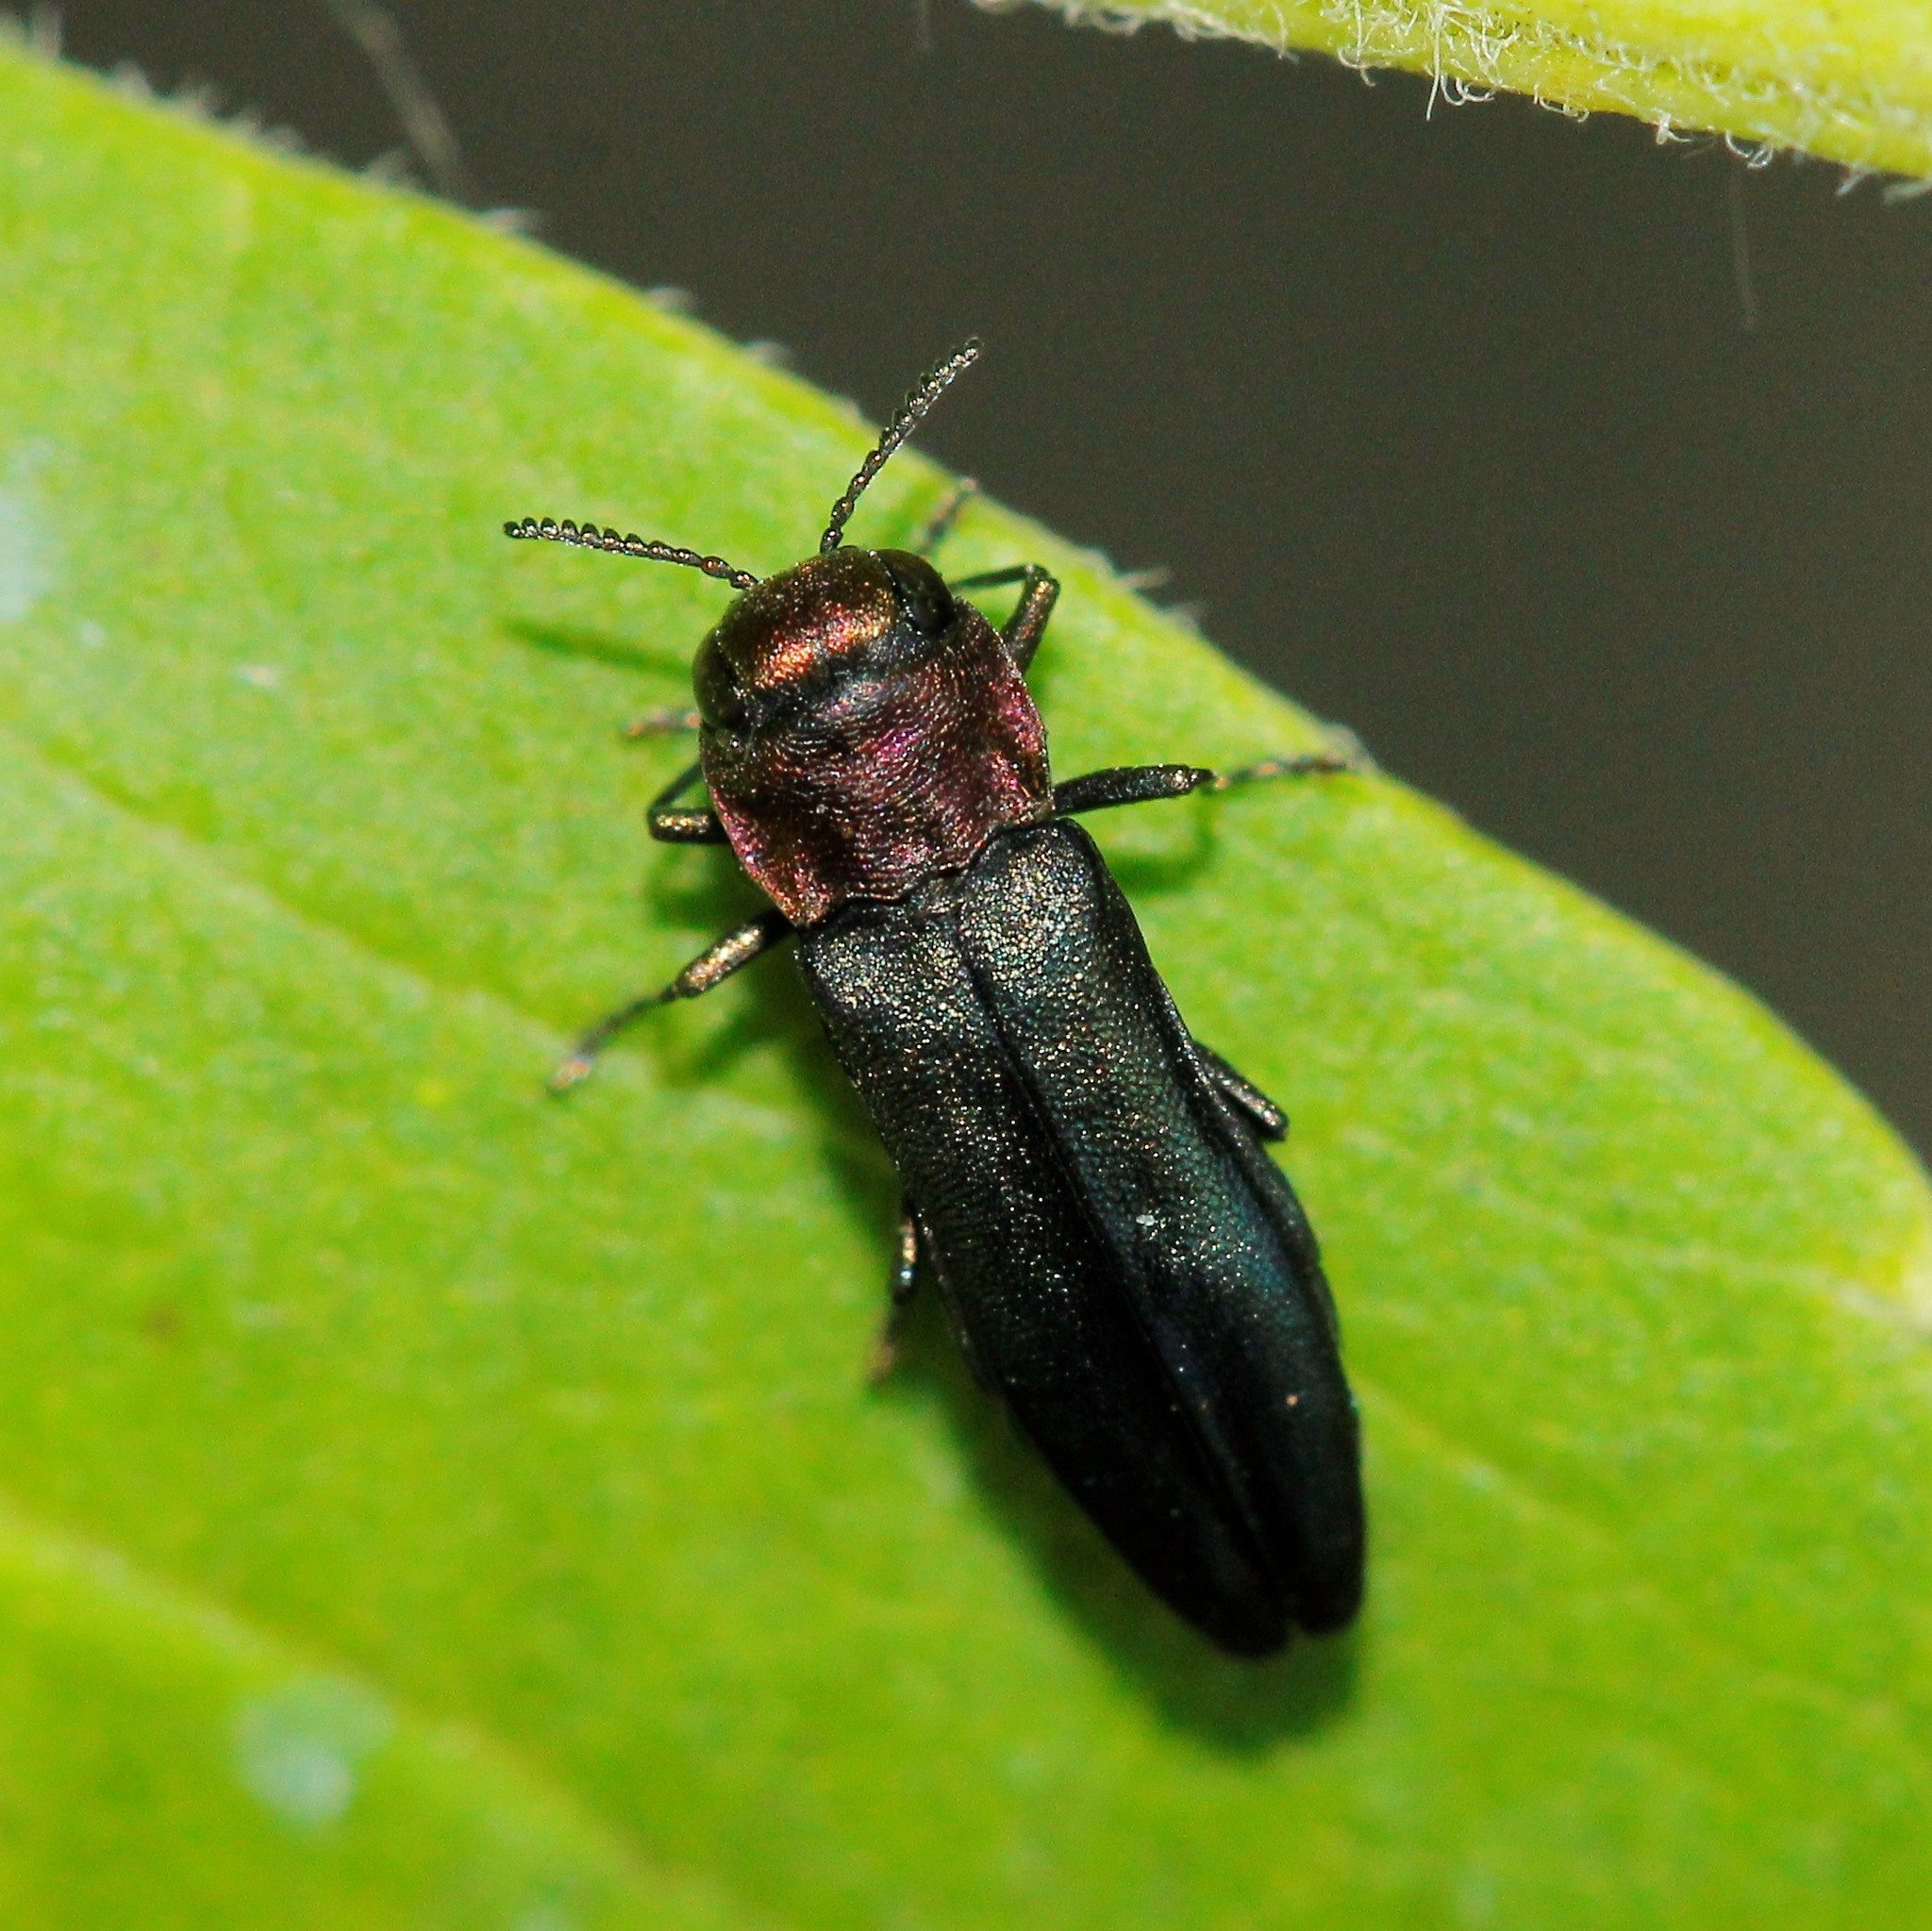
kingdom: Animalia
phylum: Arthropoda
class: Insecta
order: Coleoptera
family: Buprestidae
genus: Agrilus
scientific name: Agrilus pratensis
